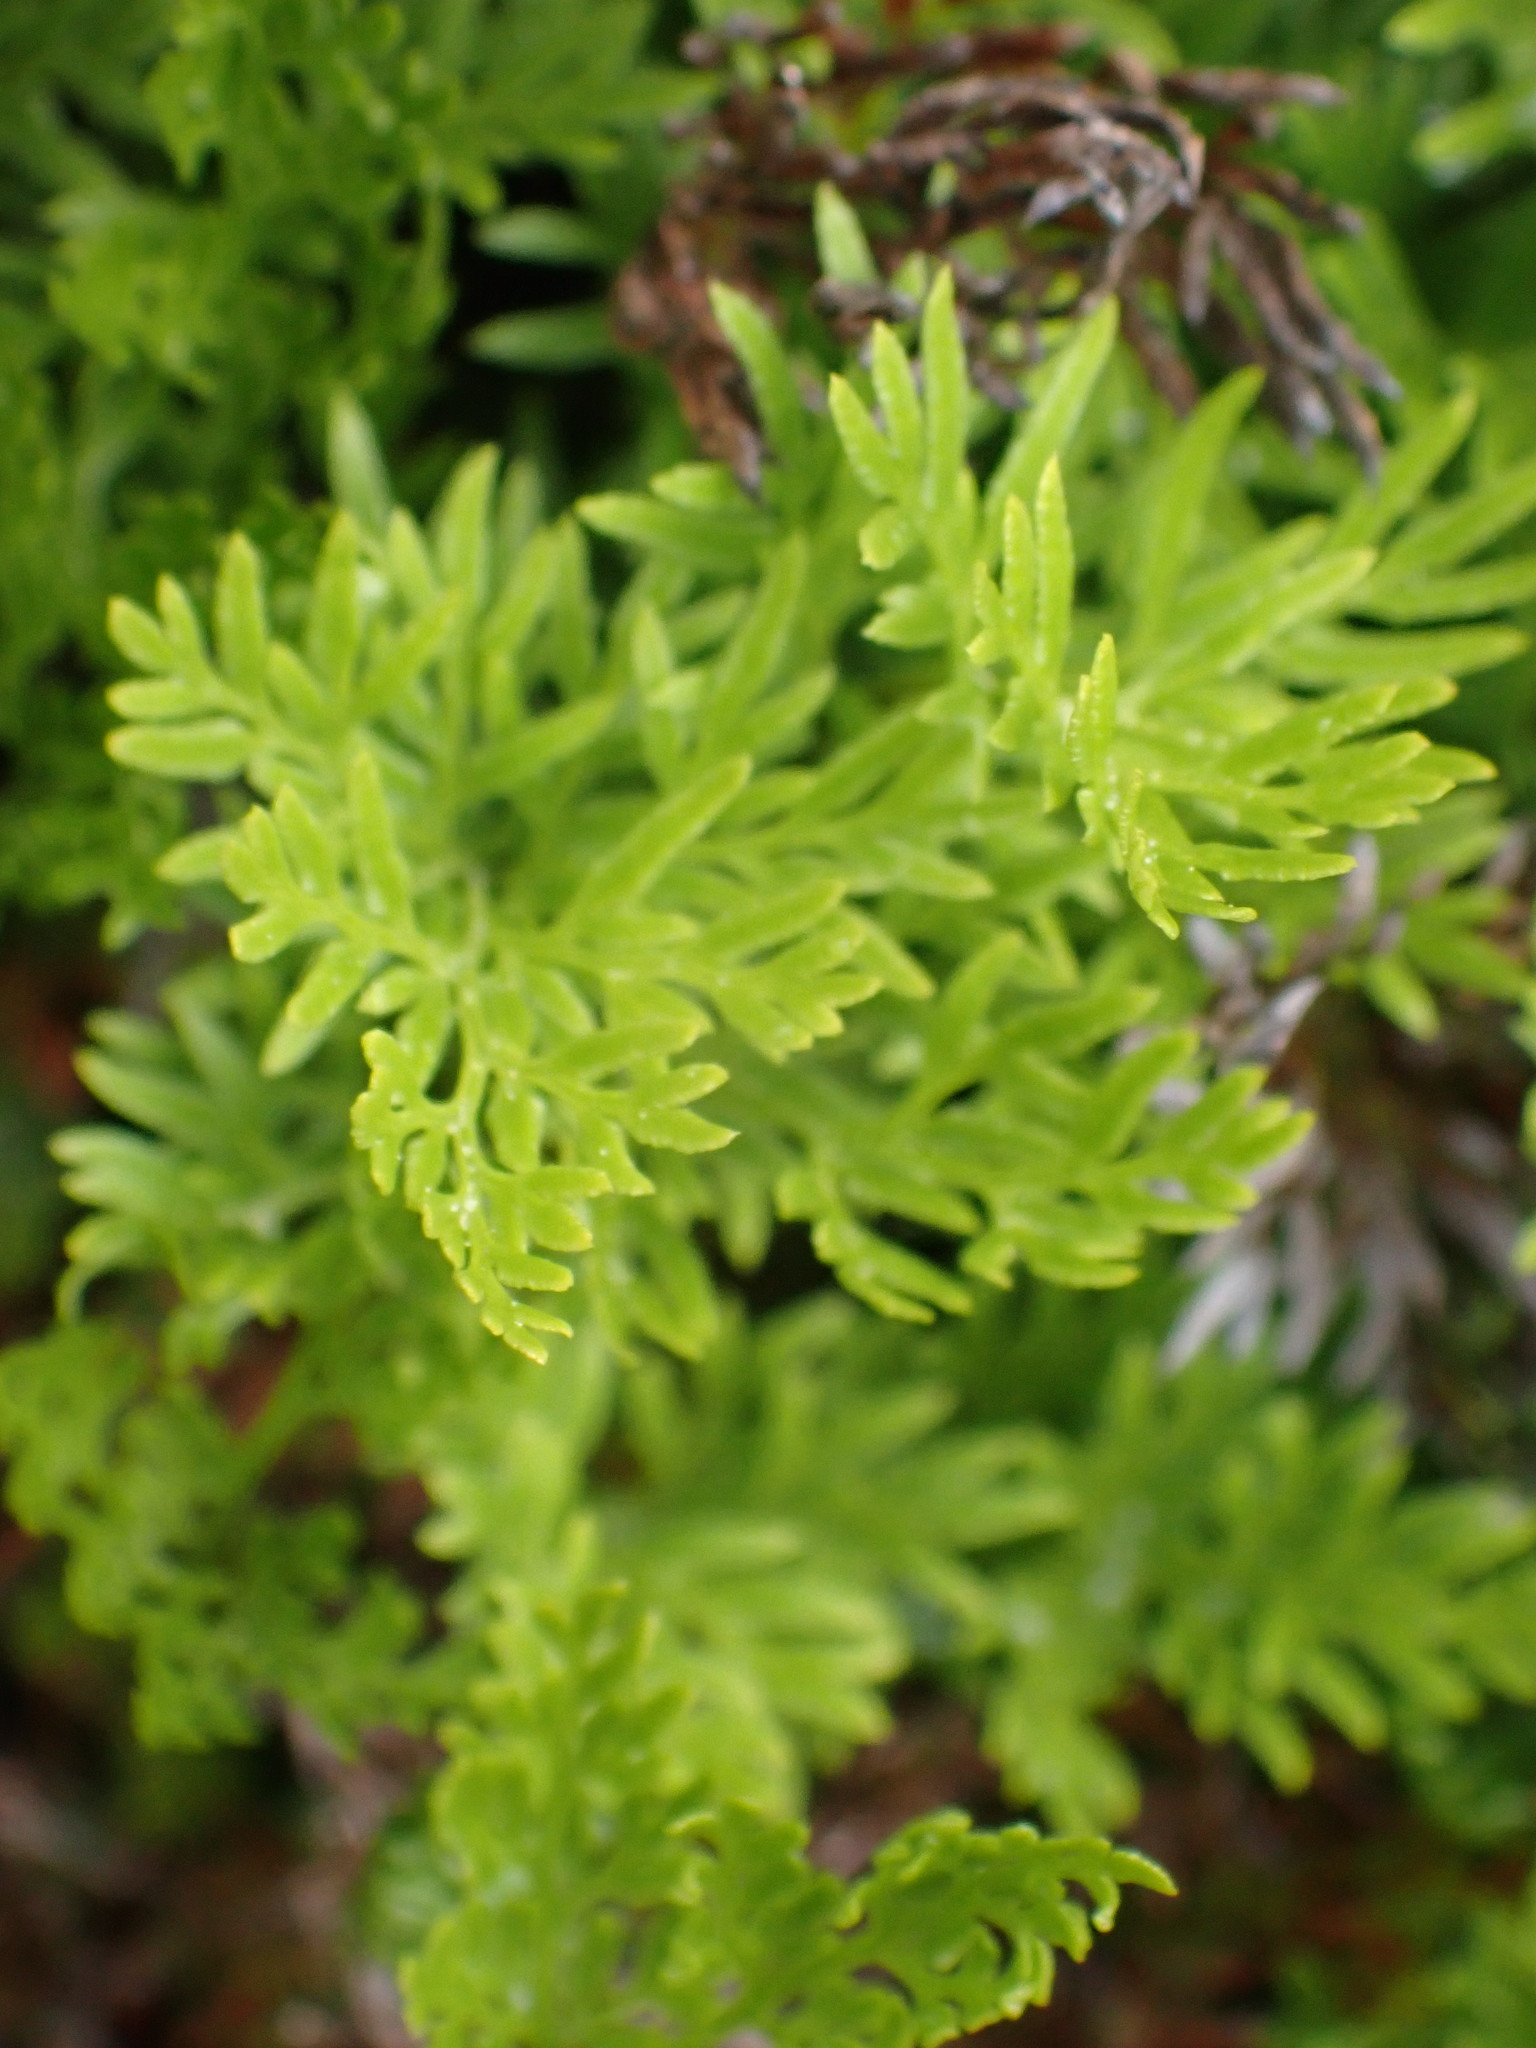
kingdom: Plantae
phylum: Tracheophyta
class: Polypodiopsida
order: Polypodiales
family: Pteridaceae
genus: Aspidotis
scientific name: Aspidotis densa
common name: Indian's dream
